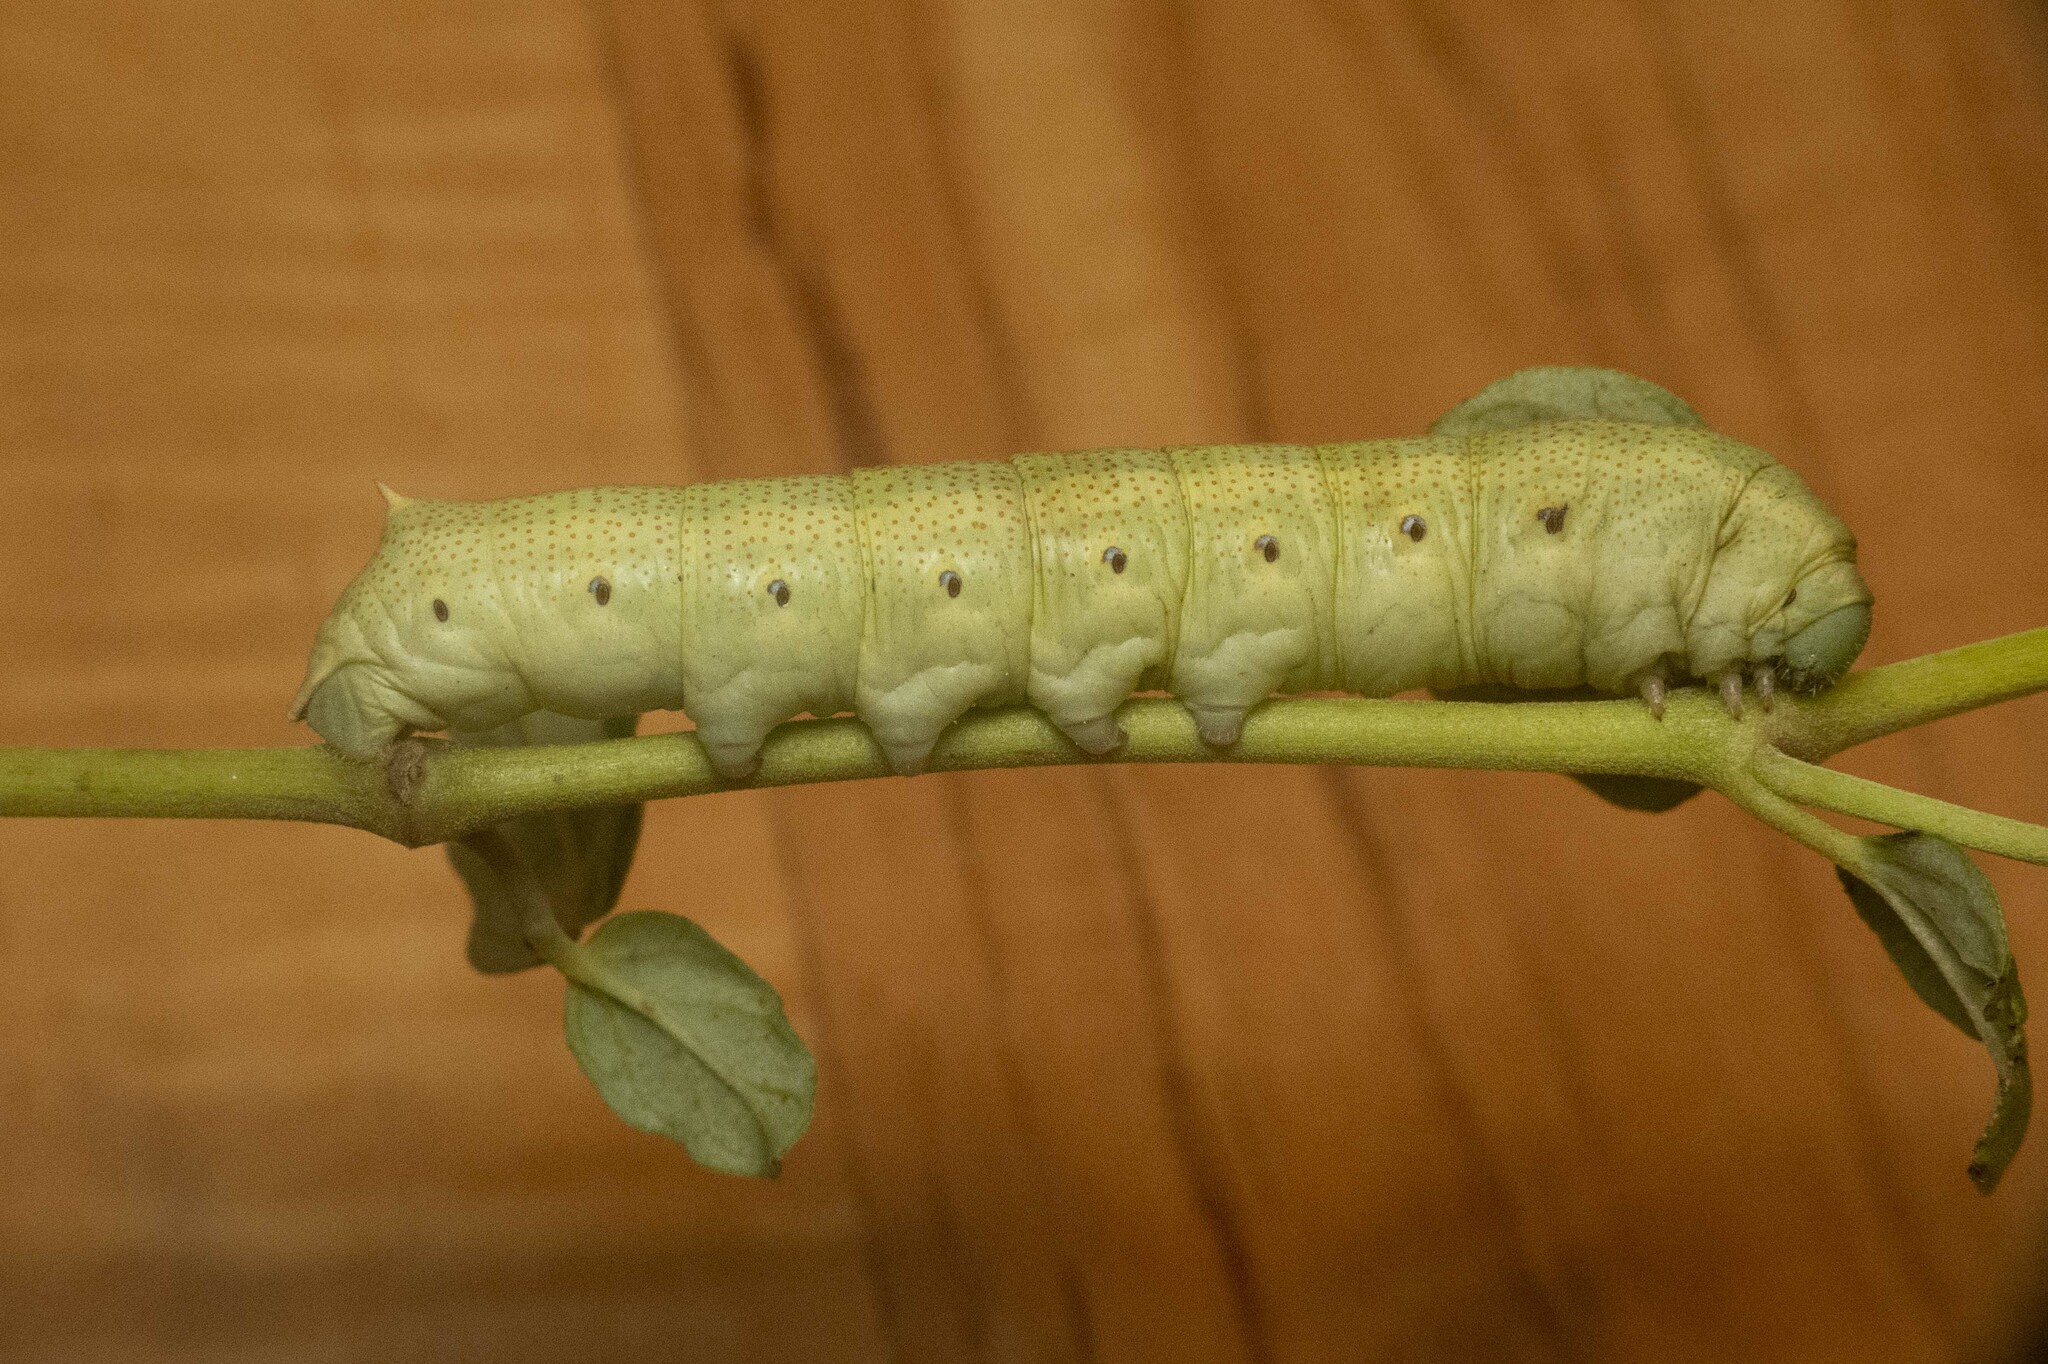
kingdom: Animalia
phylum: Arthropoda
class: Insecta
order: Lepidoptera
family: Sphingidae
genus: Proserpinus
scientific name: Proserpinus terlooii
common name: Terloo's sphinx
